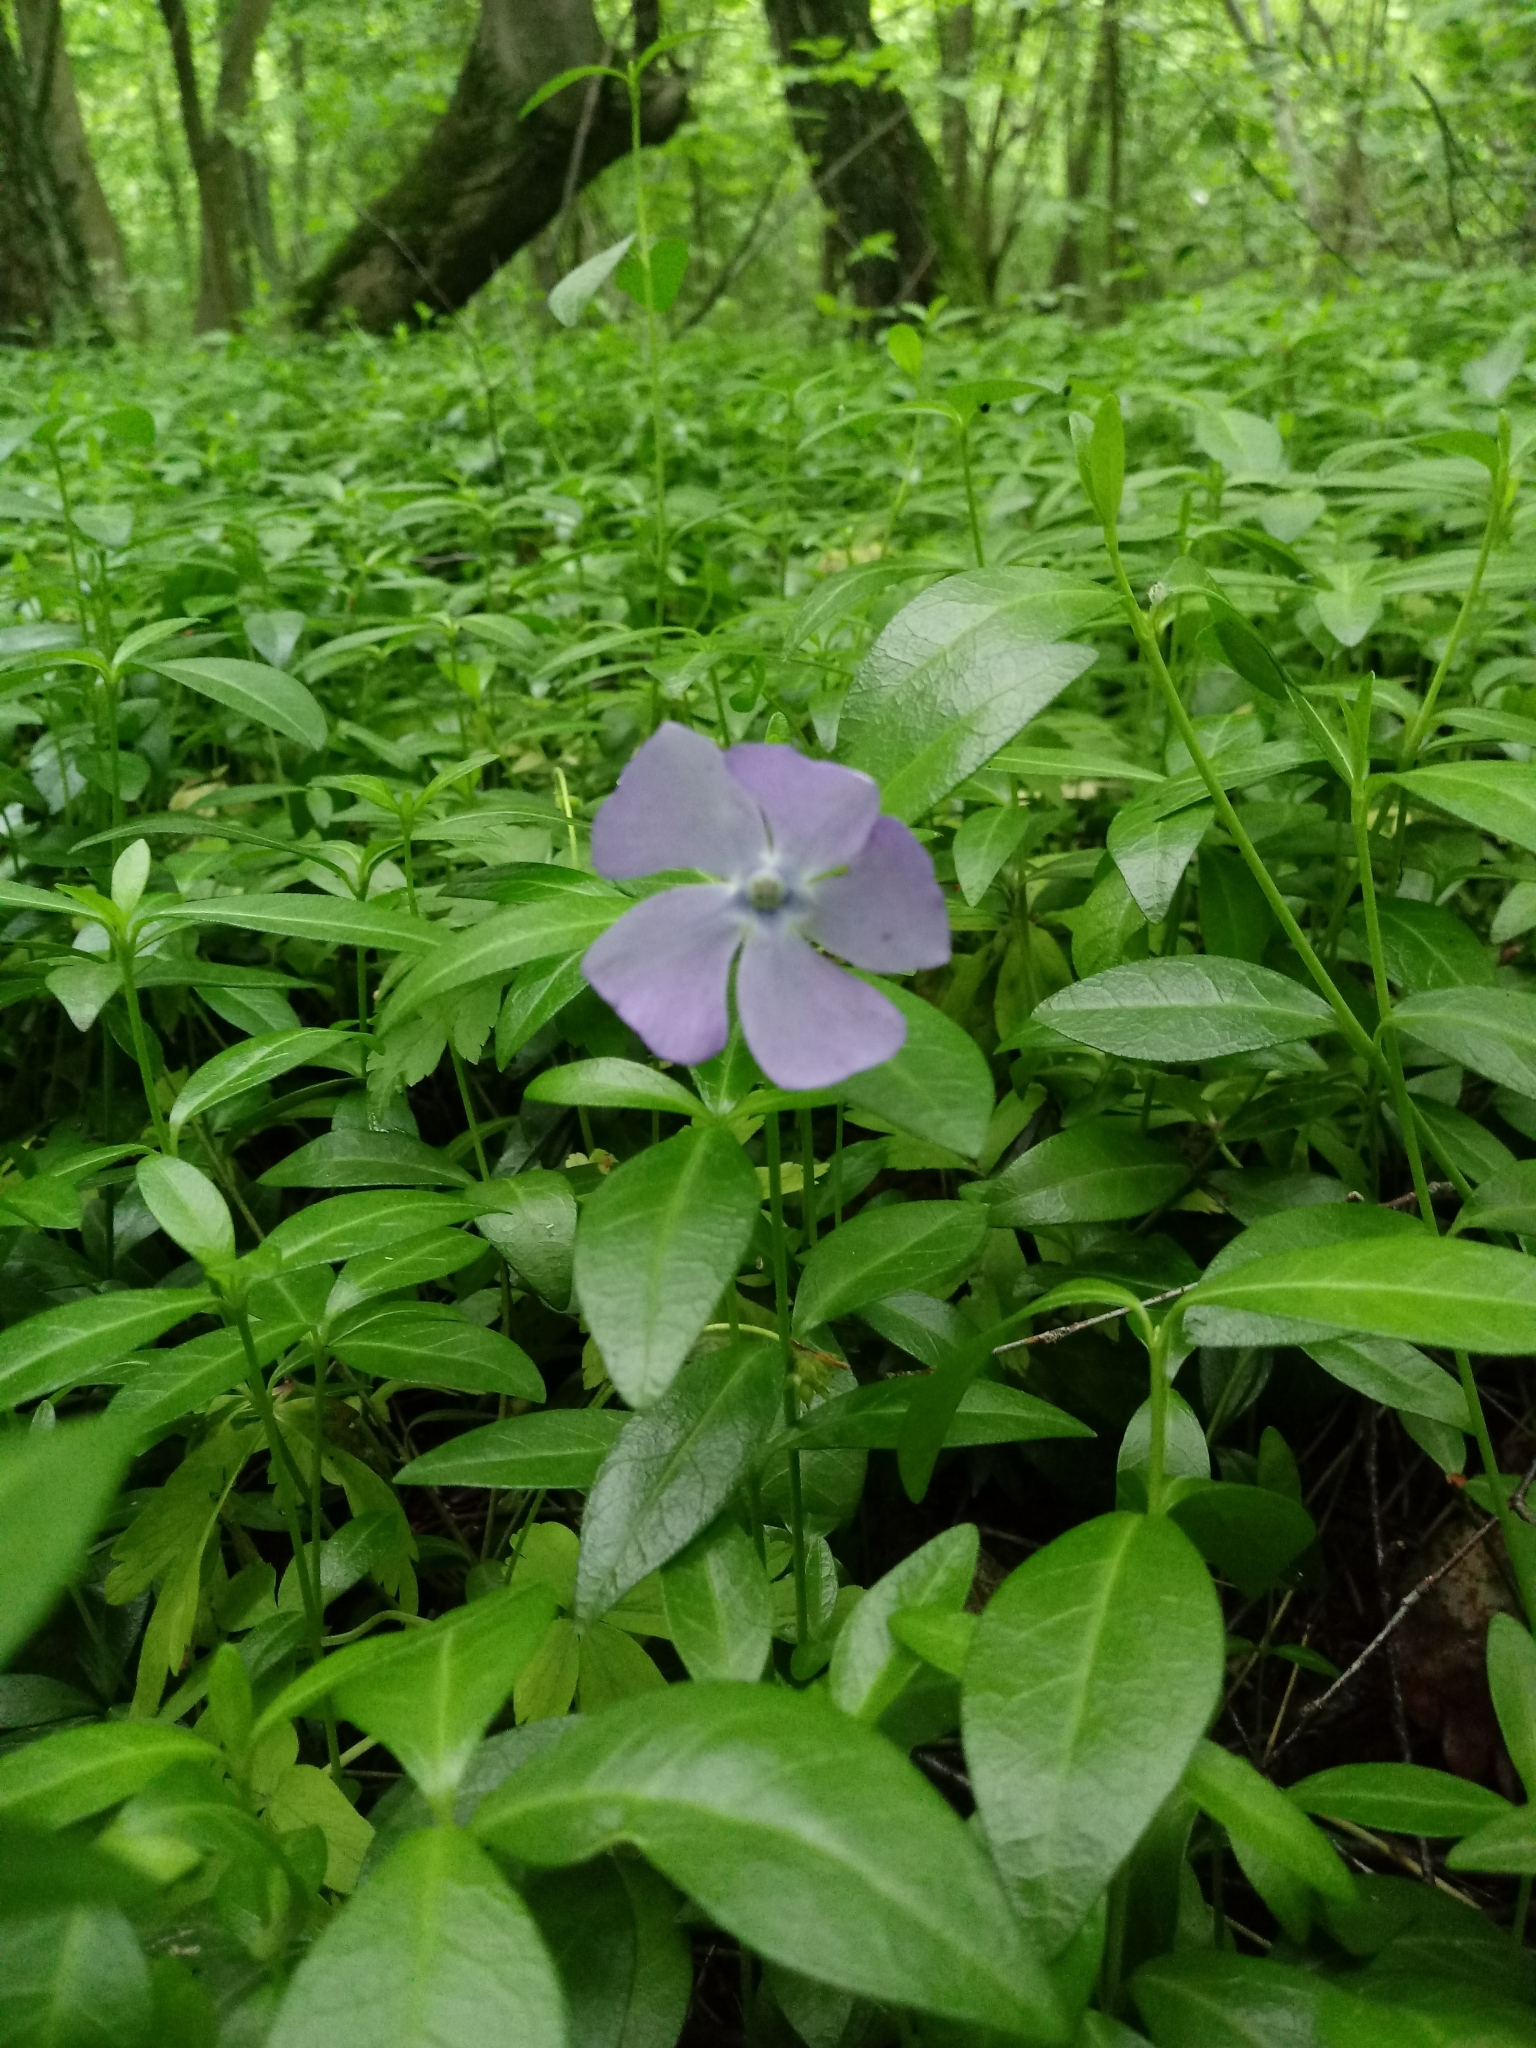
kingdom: Plantae
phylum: Tracheophyta
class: Magnoliopsida
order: Gentianales
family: Apocynaceae
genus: Vinca
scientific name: Vinca minor
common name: Lesser periwinkle
